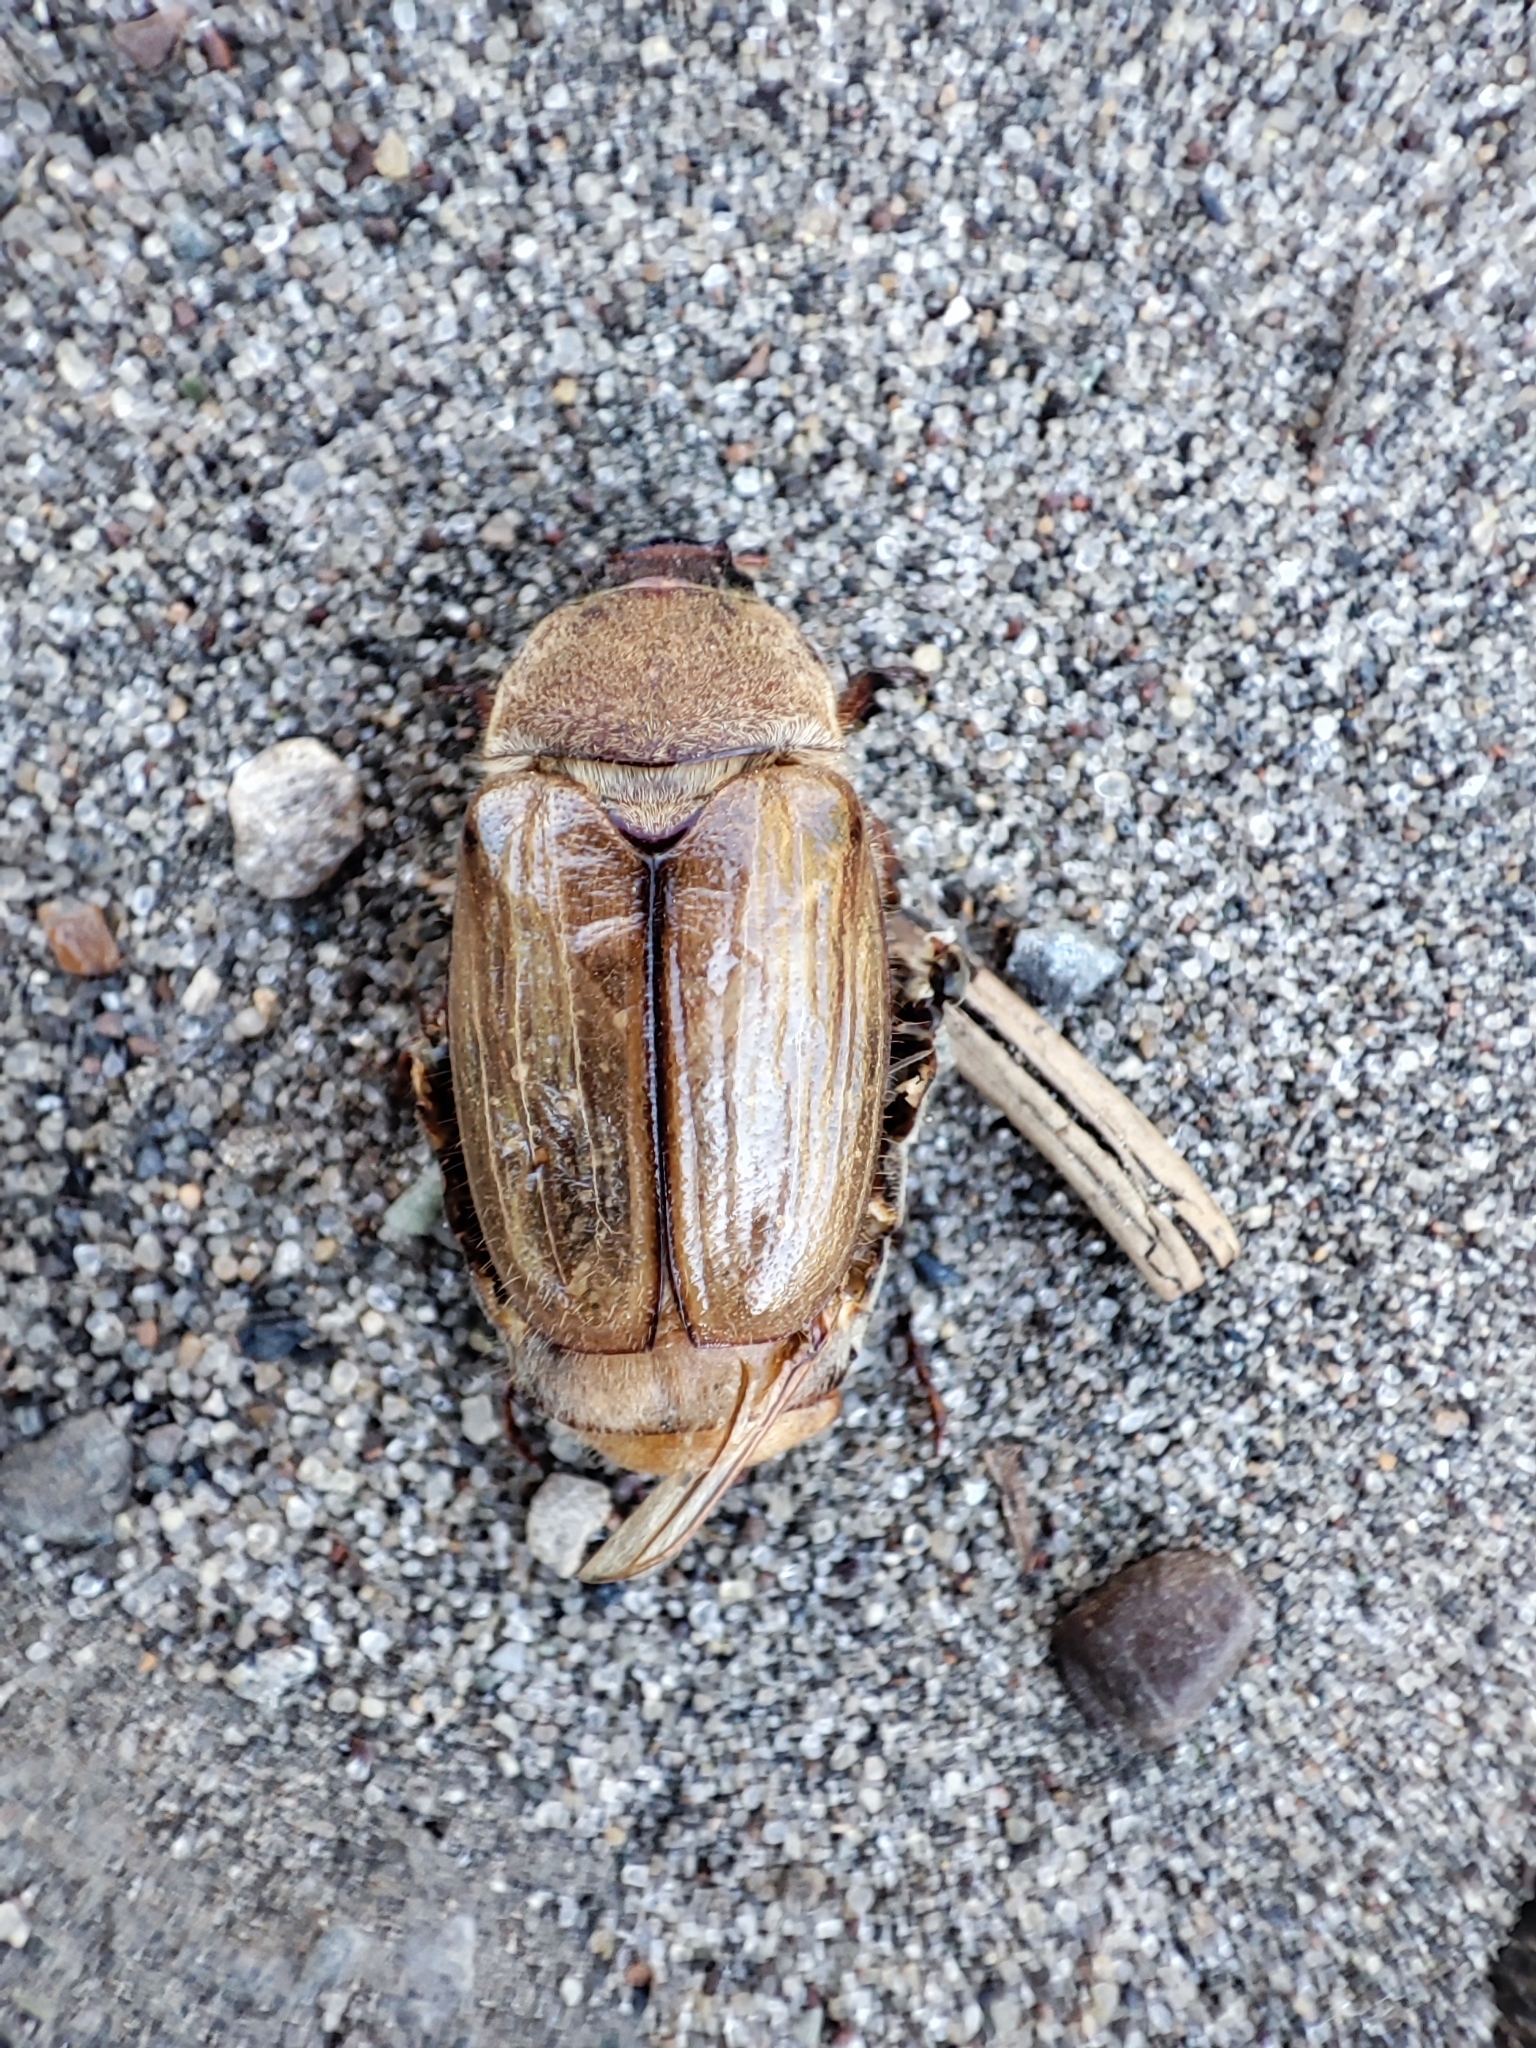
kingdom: Animalia
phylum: Arthropoda
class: Insecta
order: Coleoptera
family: Scarabaeidae
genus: Amphimallon
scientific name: Amphimallon solstitiale
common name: Summer chafer
